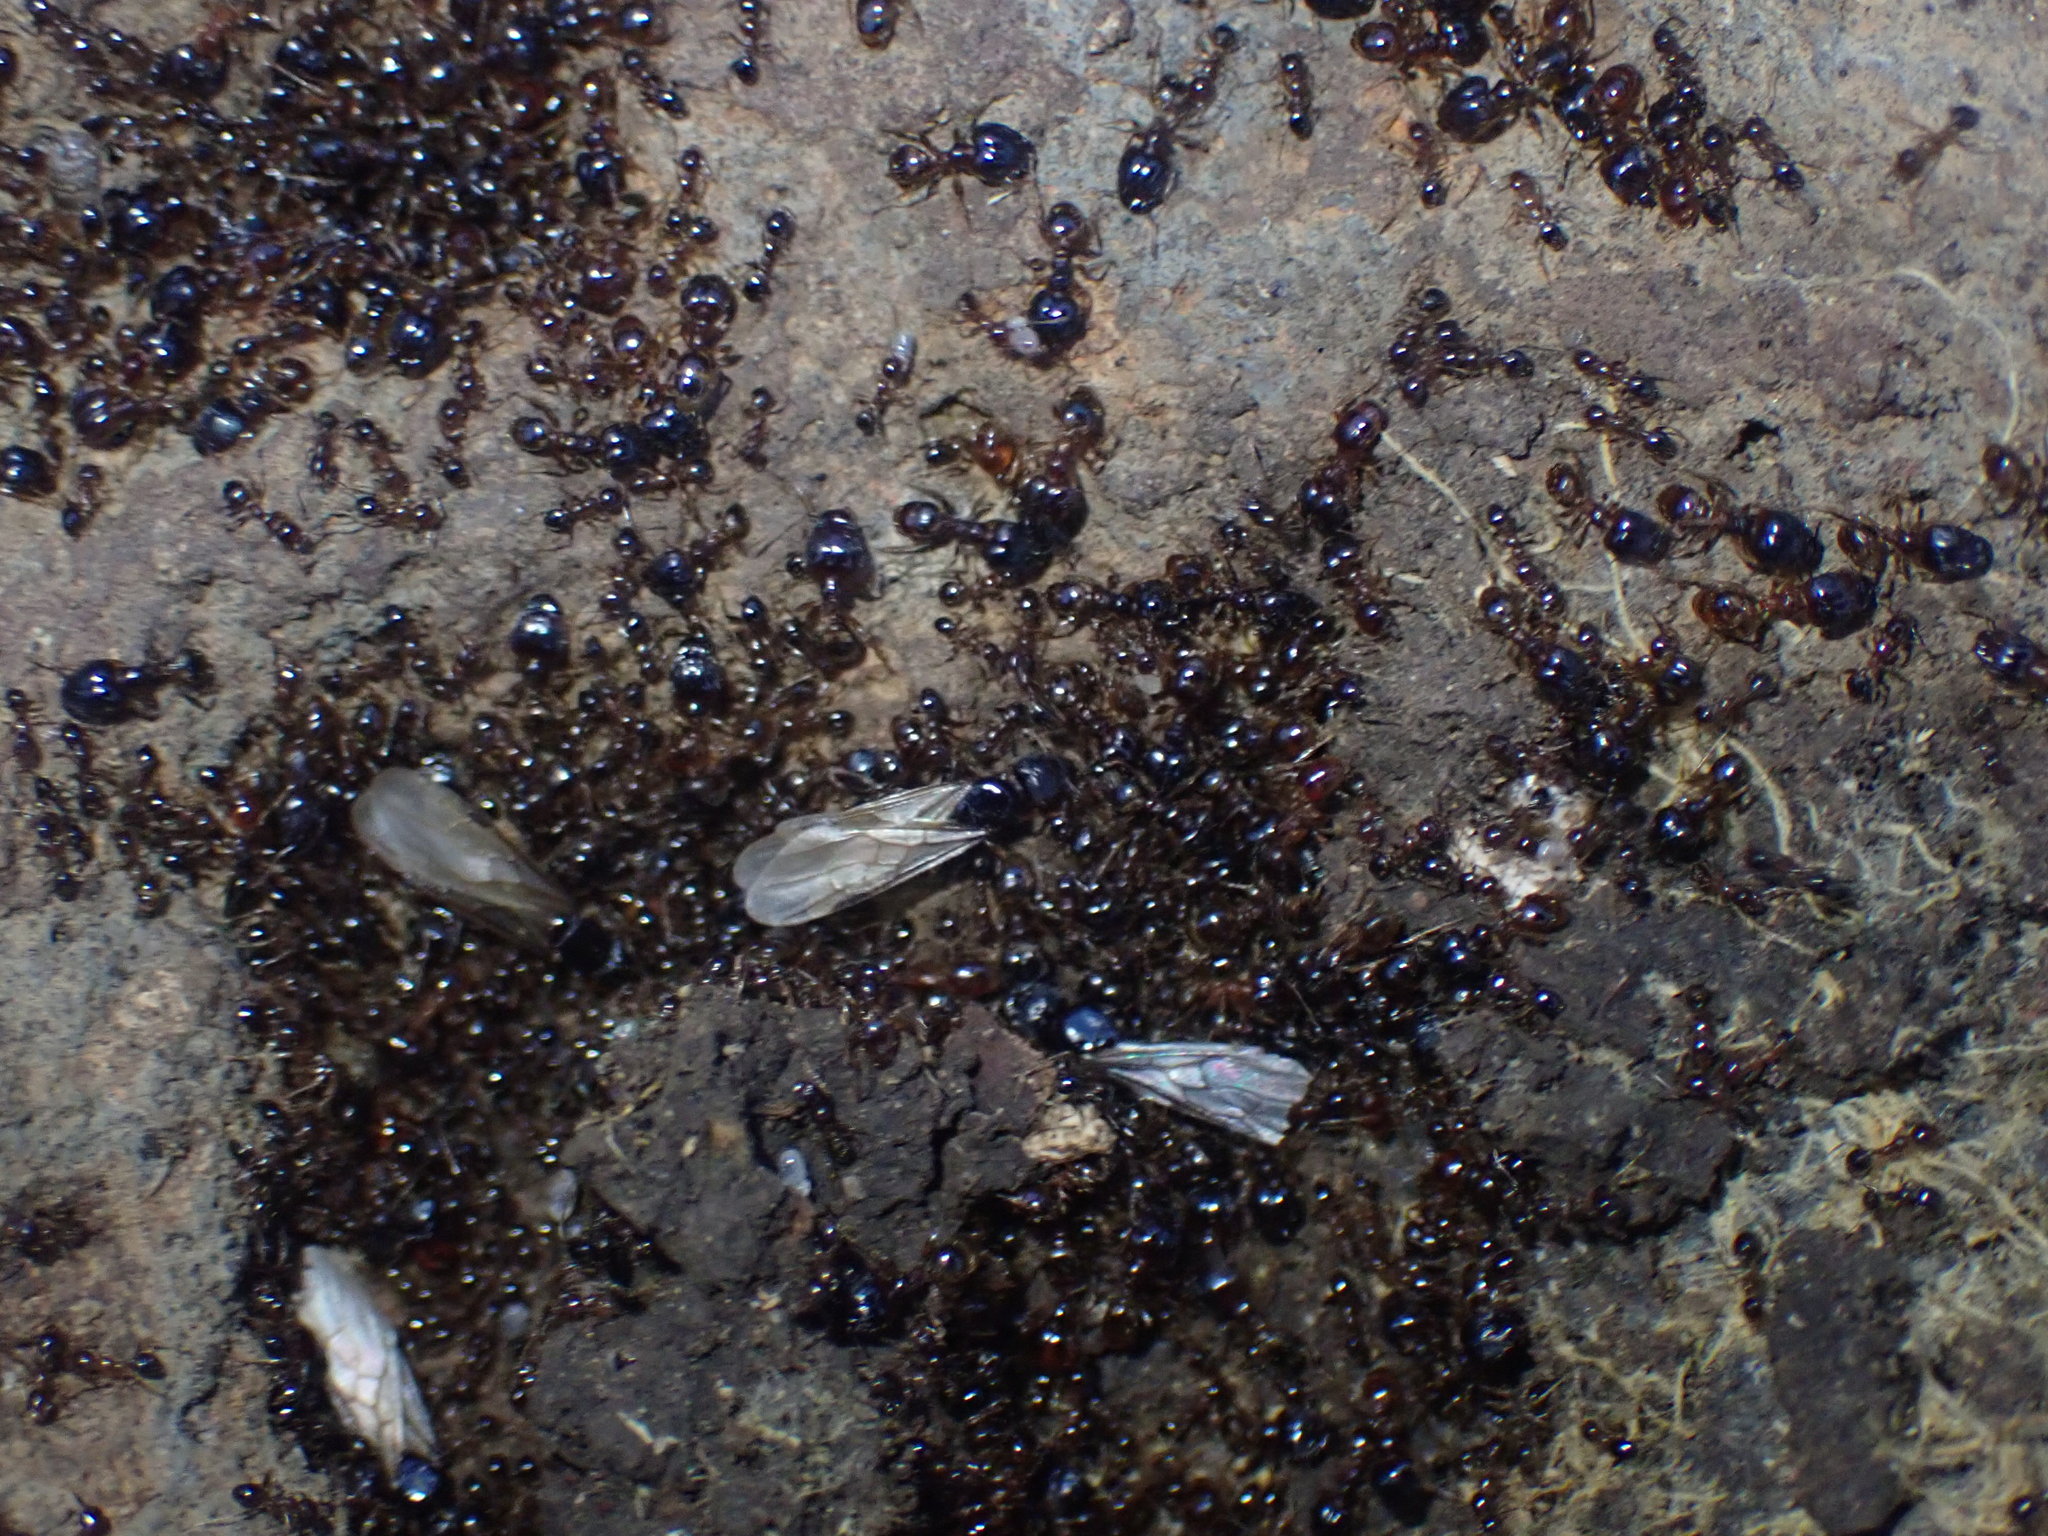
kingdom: Animalia
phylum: Arthropoda
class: Insecta
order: Hymenoptera
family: Formicidae
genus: Pheidole
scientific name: Pheidole megacephala
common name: Bigheaded ant
